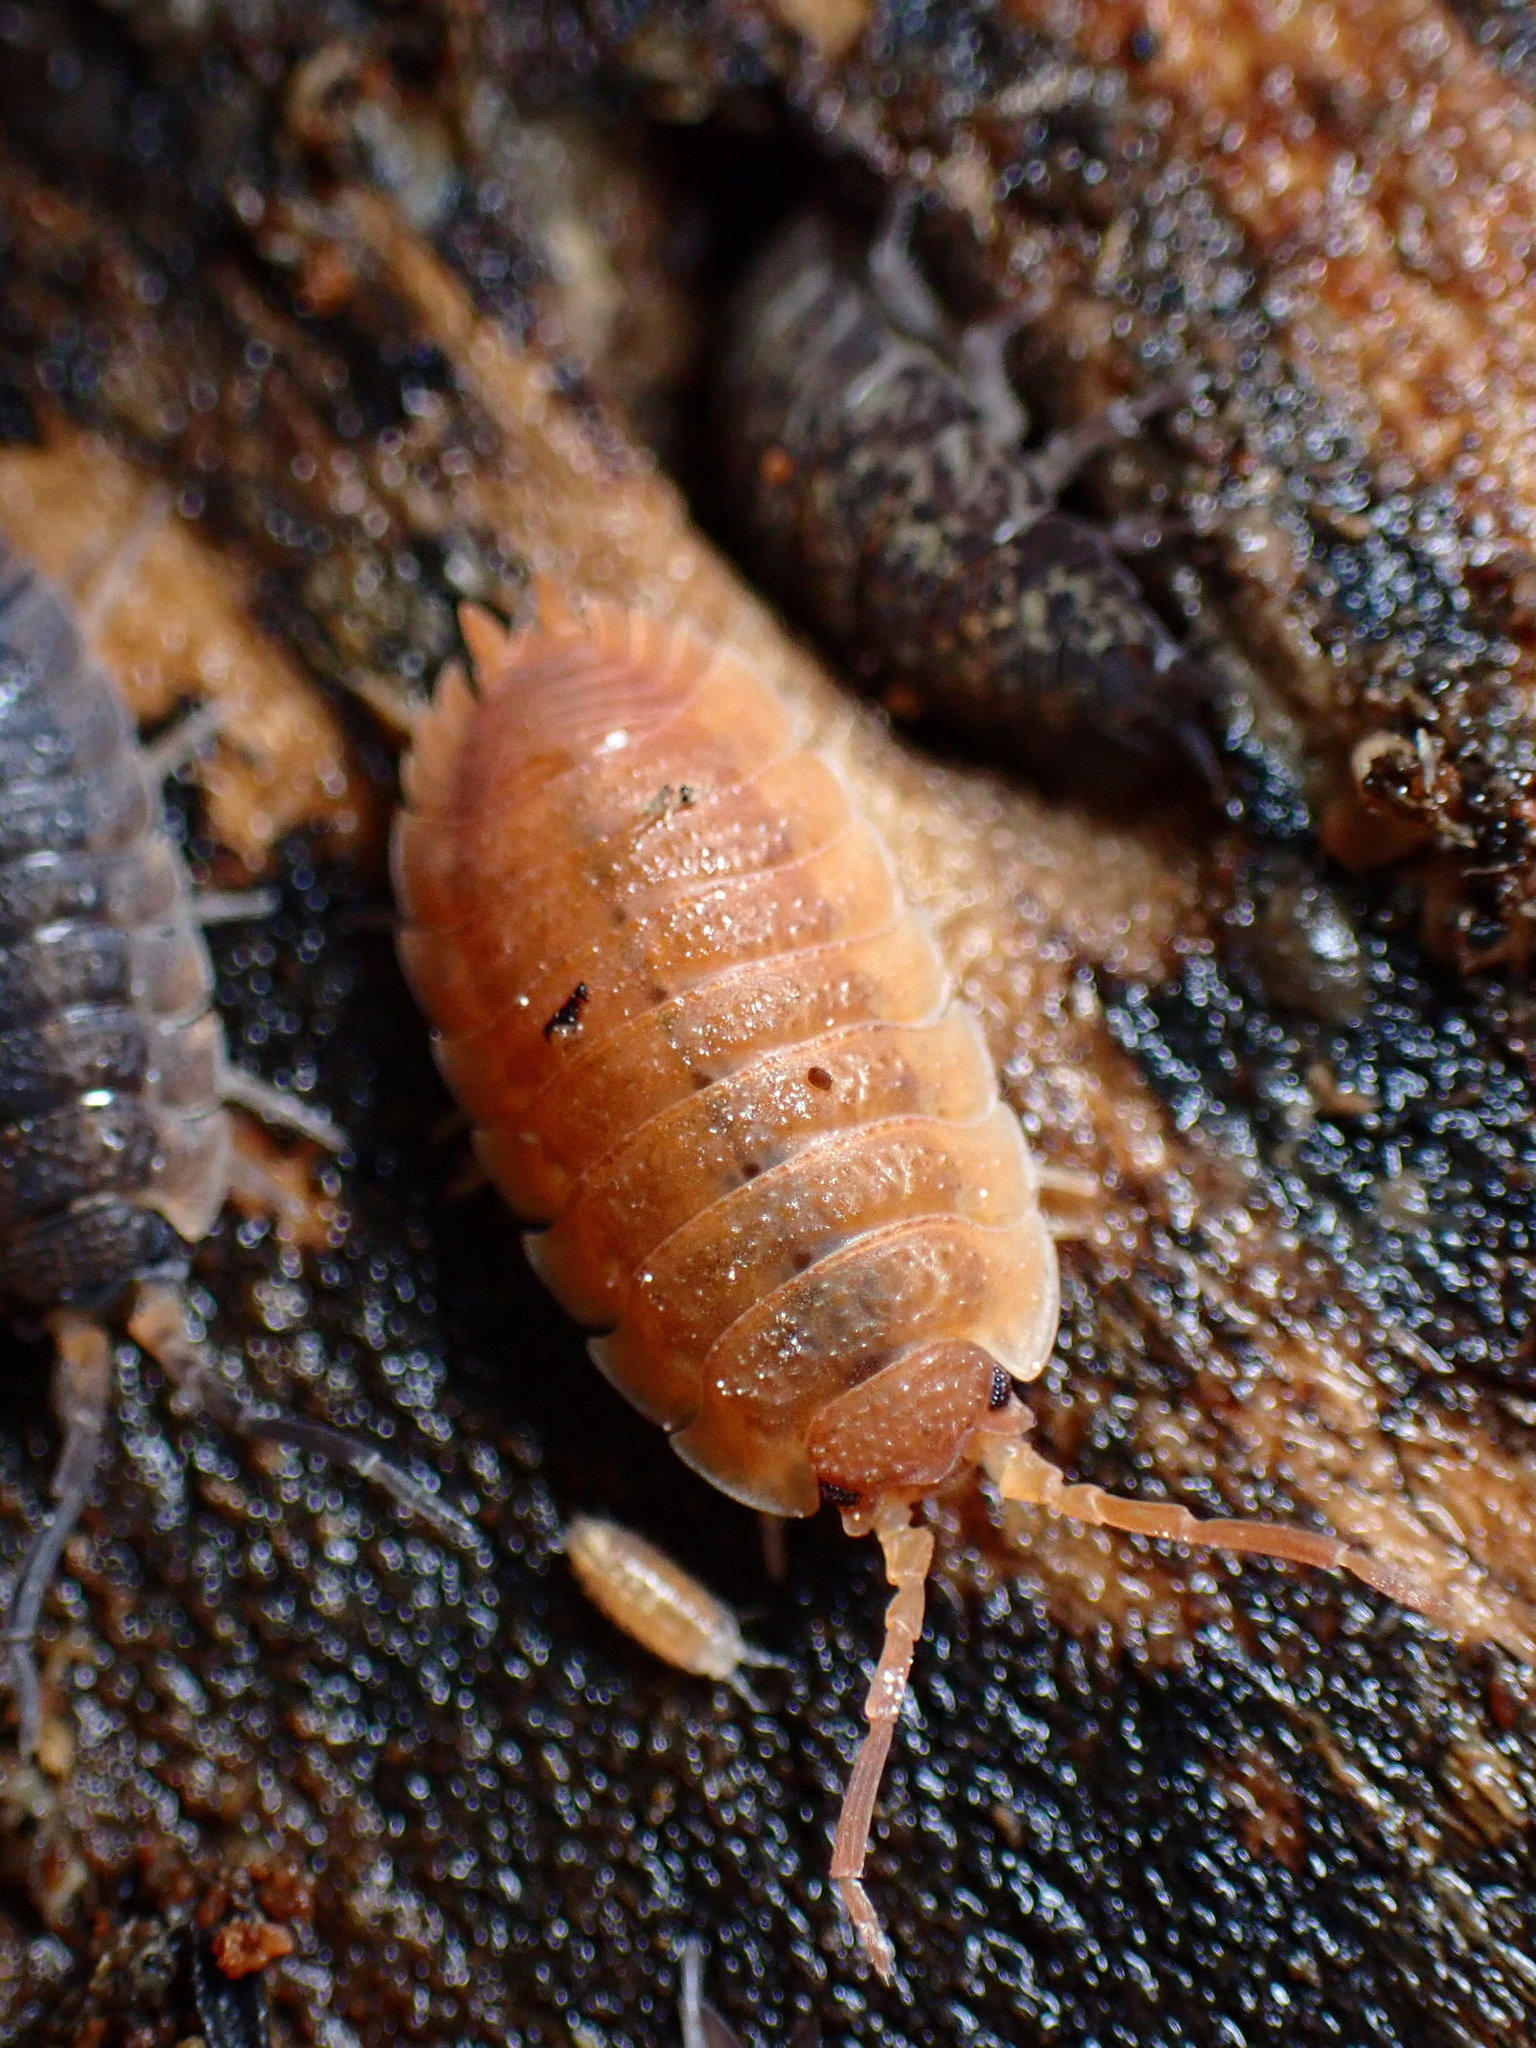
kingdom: Animalia
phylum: Arthropoda
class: Malacostraca
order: Isopoda
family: Porcellionidae
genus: Porcellio
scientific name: Porcellio scaber
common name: Common rough woodlouse
